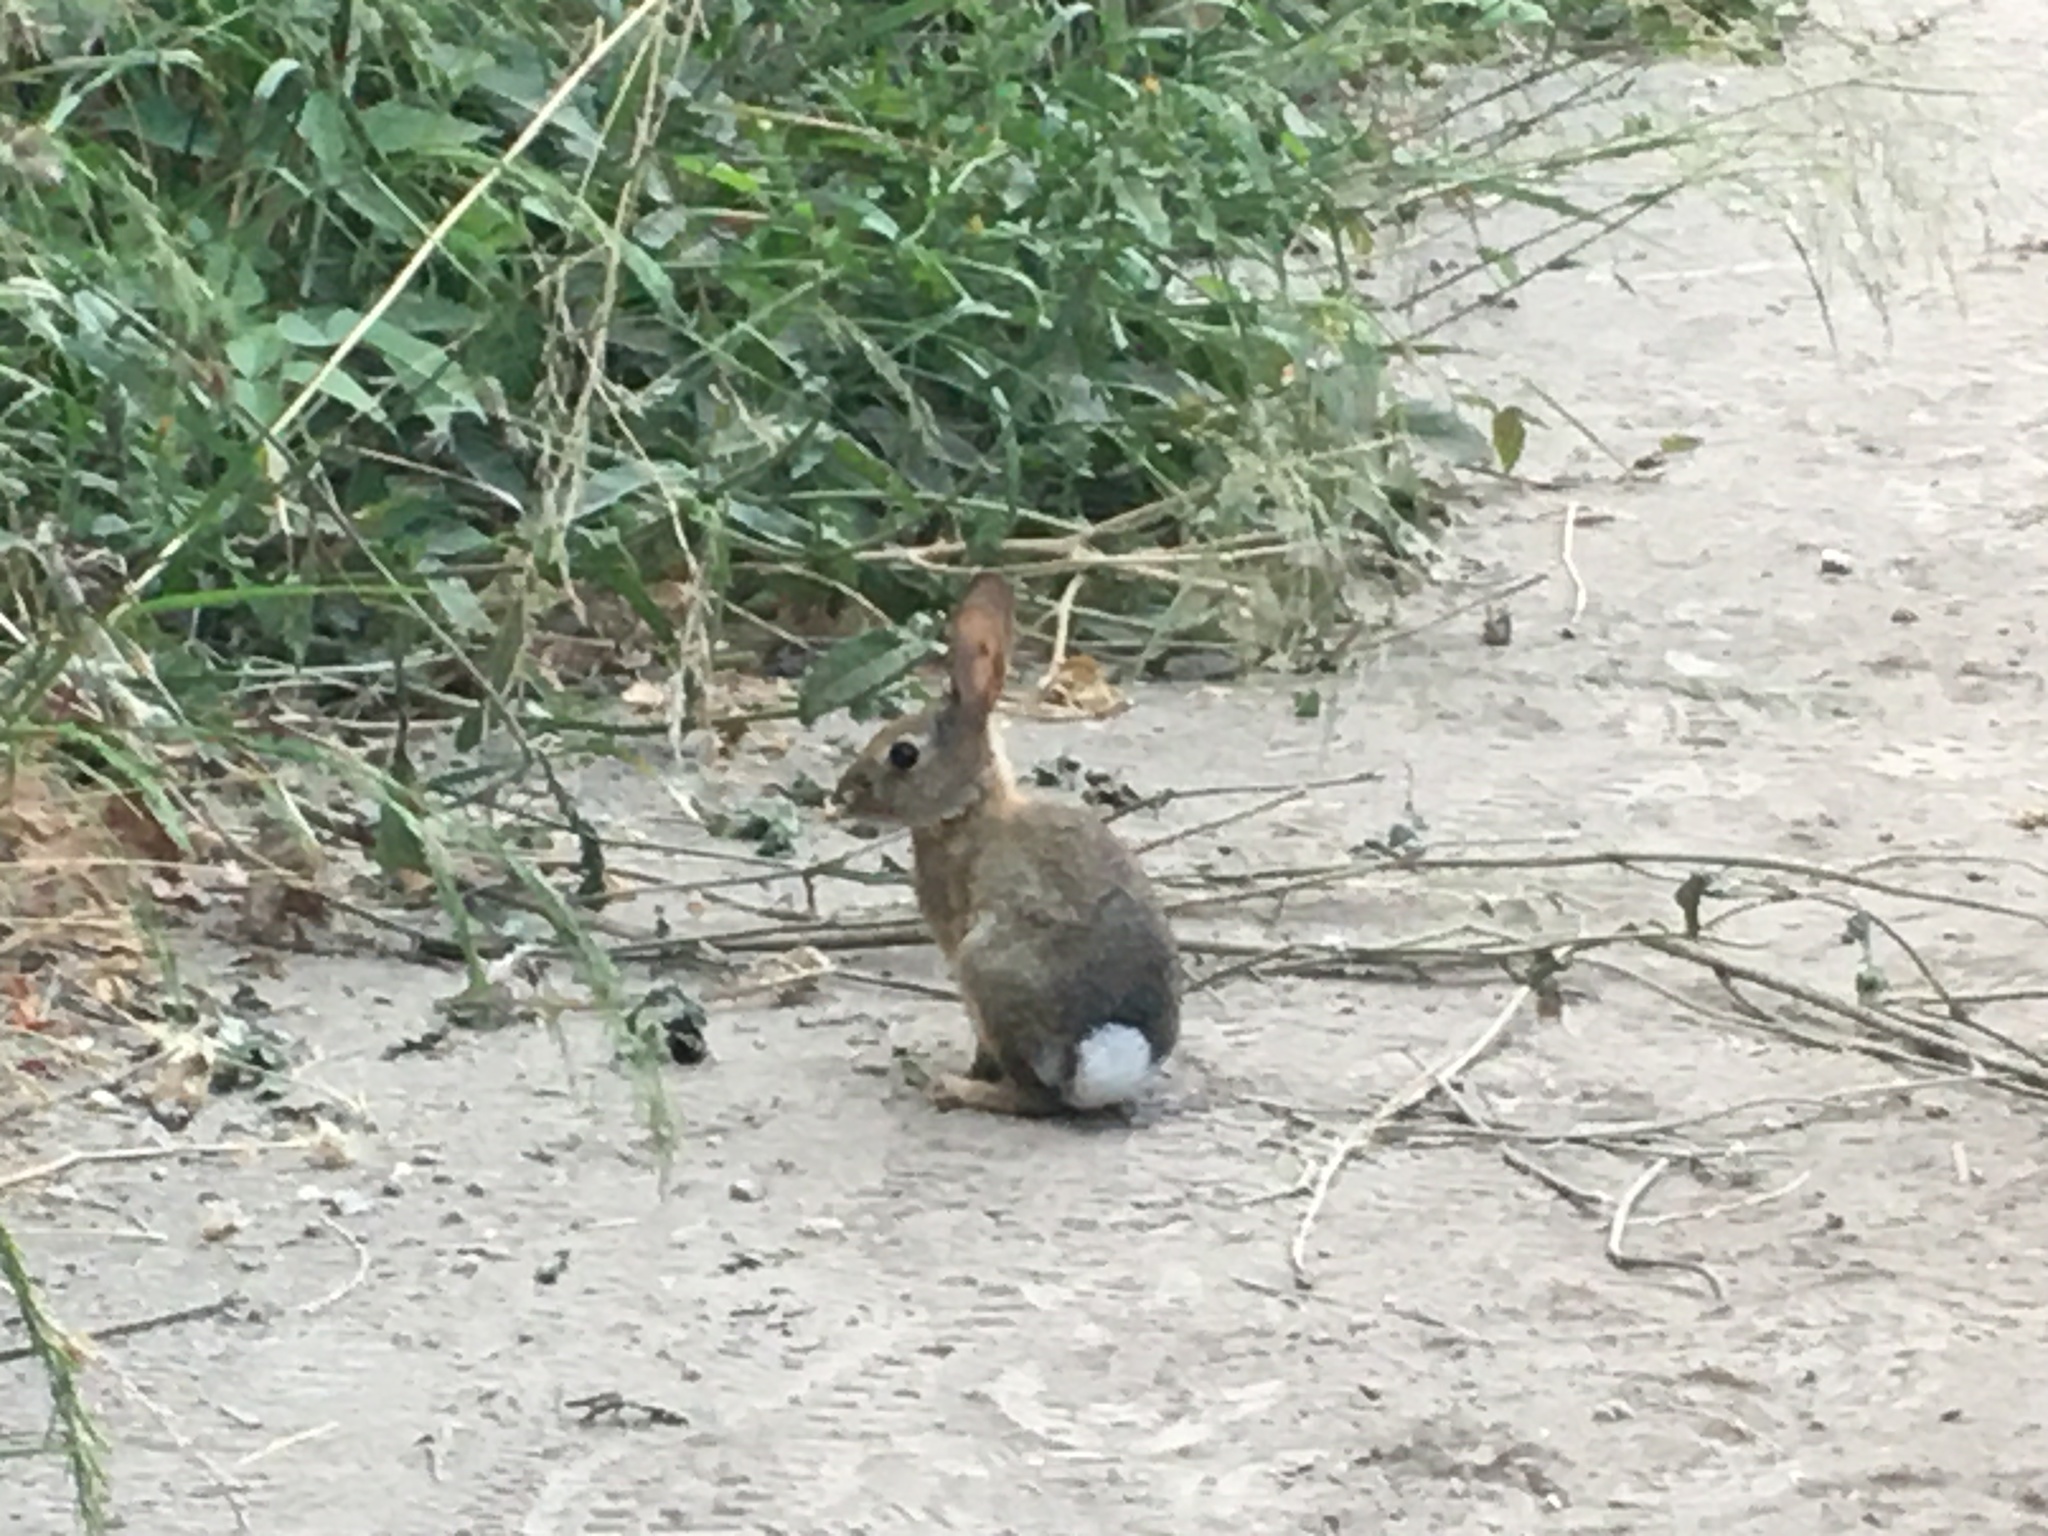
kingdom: Animalia
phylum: Chordata
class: Mammalia
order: Lagomorpha
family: Leporidae
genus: Sylvilagus
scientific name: Sylvilagus audubonii
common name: Desert cottontail
